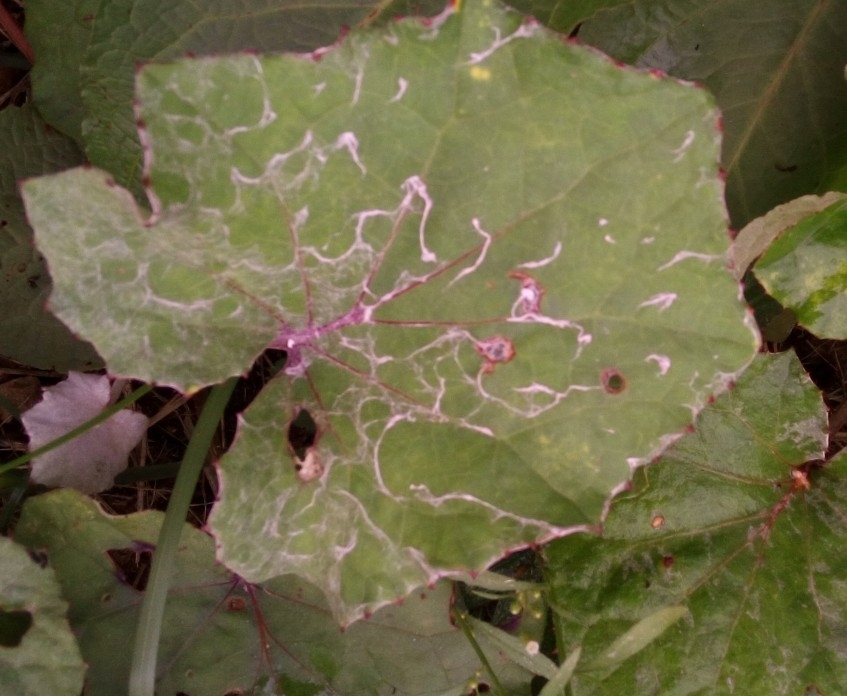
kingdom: Plantae
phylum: Tracheophyta
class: Magnoliopsida
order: Asterales
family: Asteraceae
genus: Tussilago
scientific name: Tussilago farfara
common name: Coltsfoot
